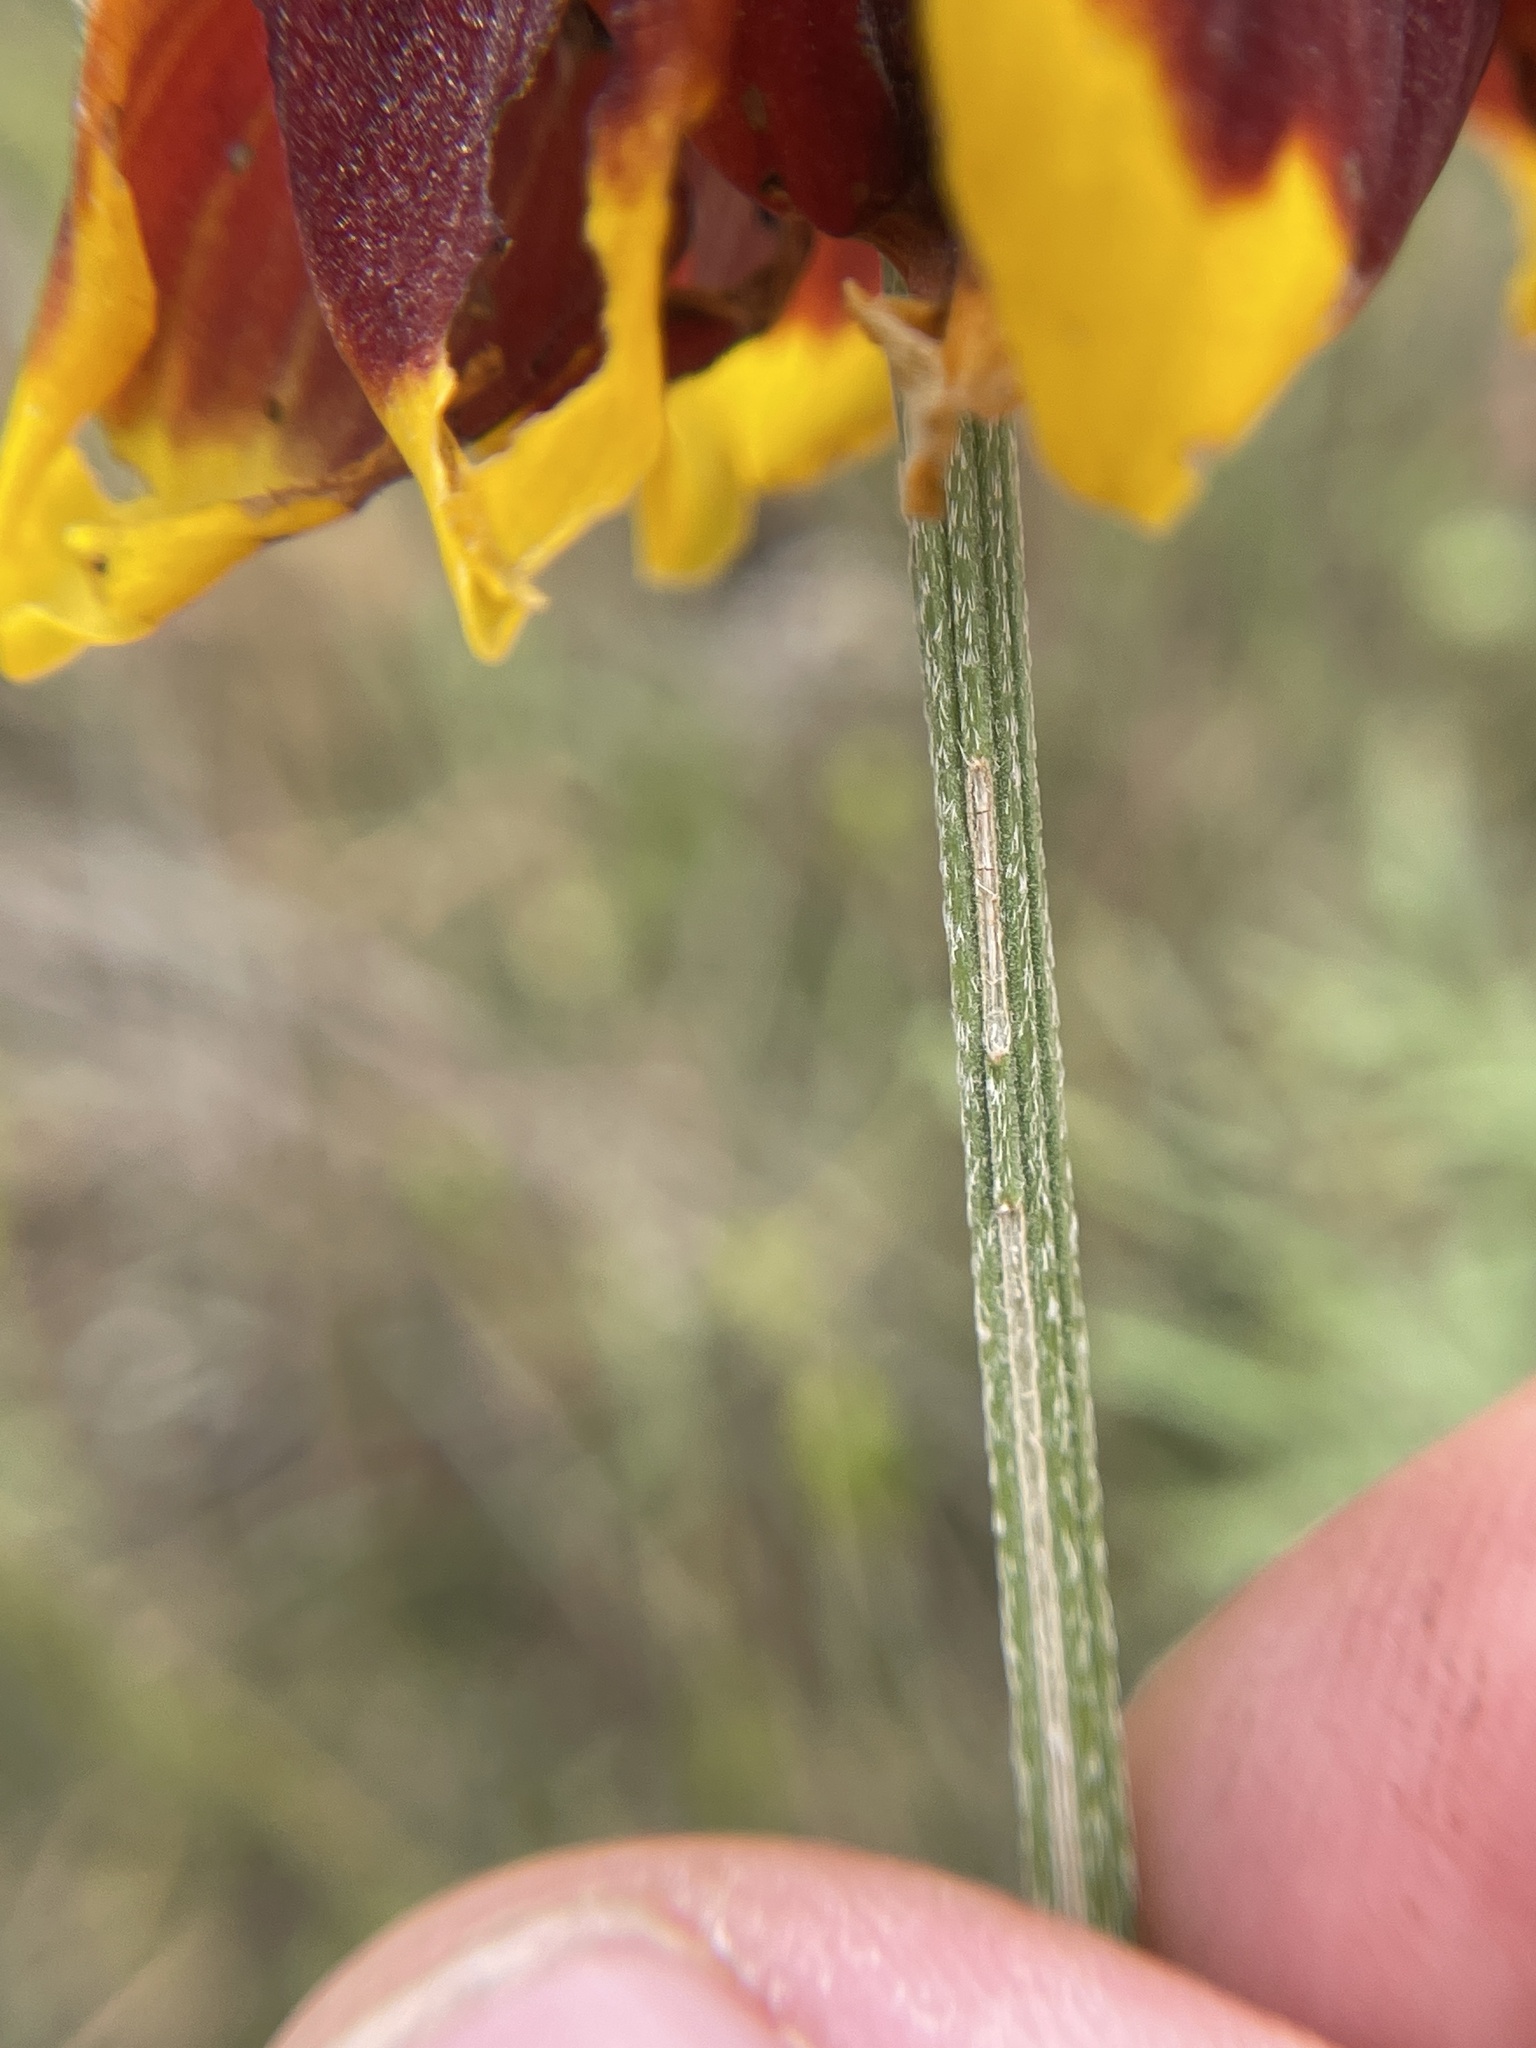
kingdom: Plantae
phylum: Tracheophyta
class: Magnoliopsida
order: Asterales
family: Asteraceae
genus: Ratibida
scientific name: Ratibida columnifera
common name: Prairie coneflower
